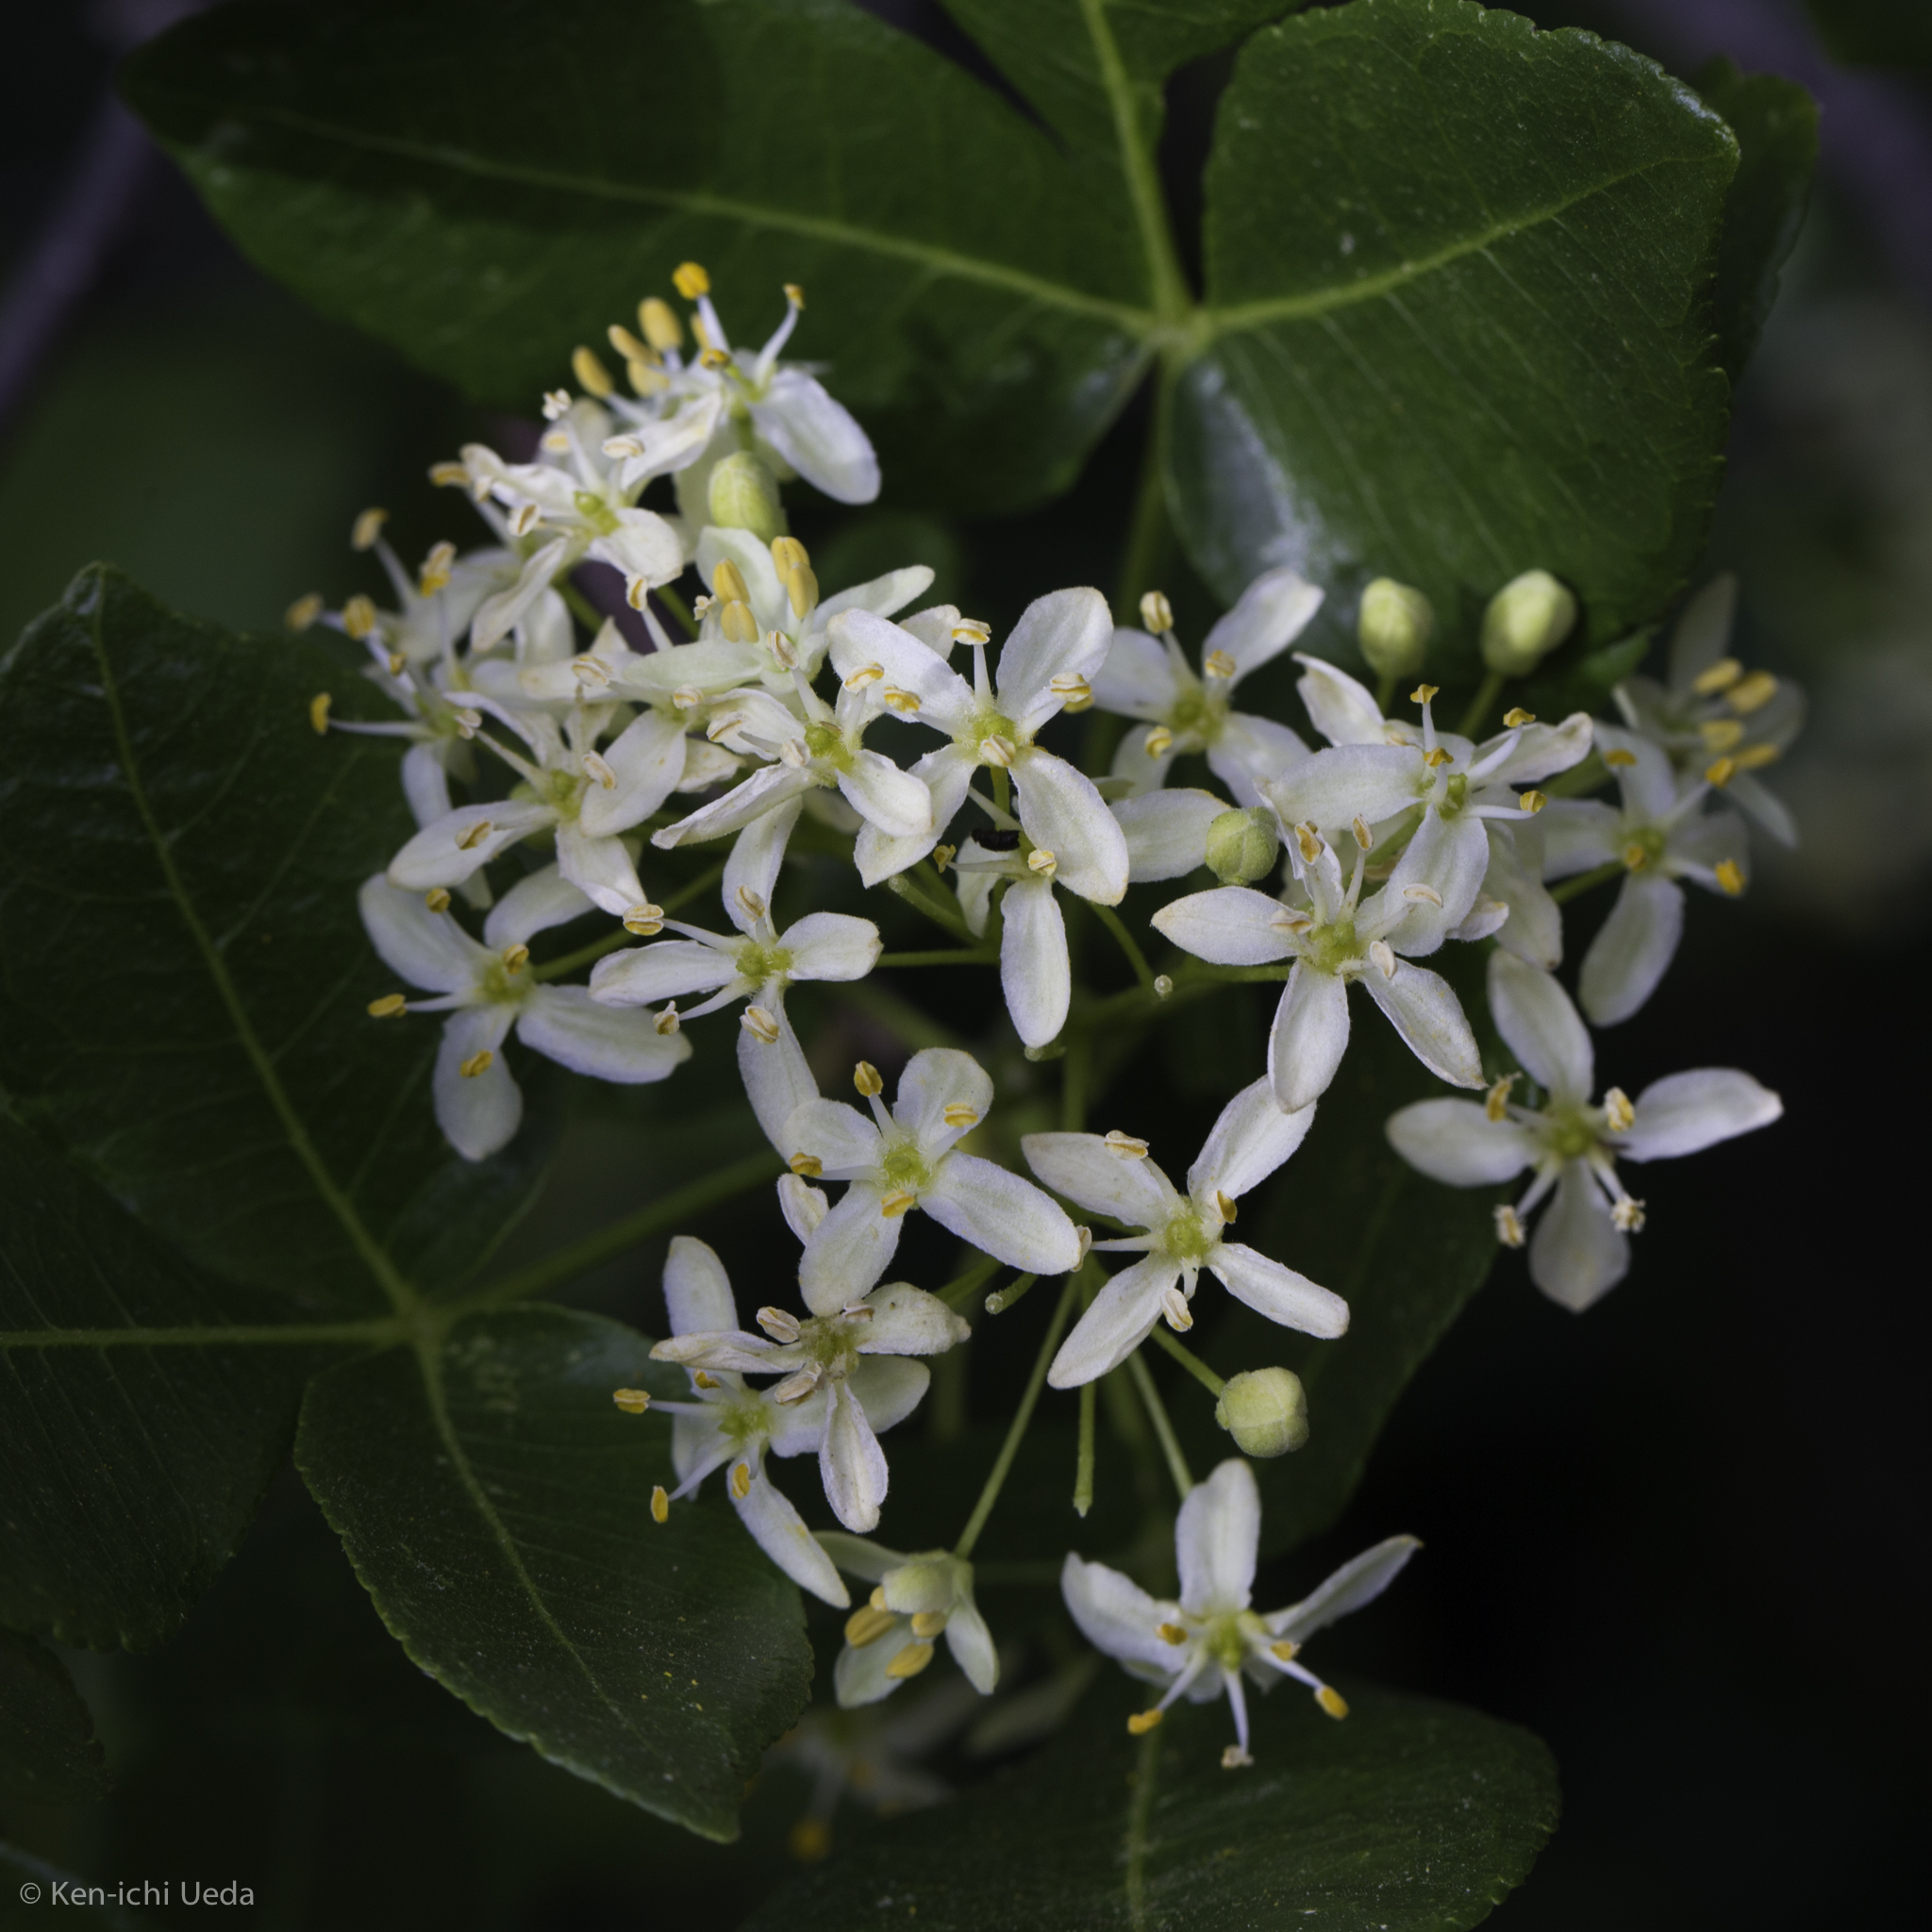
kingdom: Plantae
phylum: Tracheophyta
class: Magnoliopsida
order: Sapindales
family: Rutaceae
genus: Ptelea
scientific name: Ptelea crenulata
